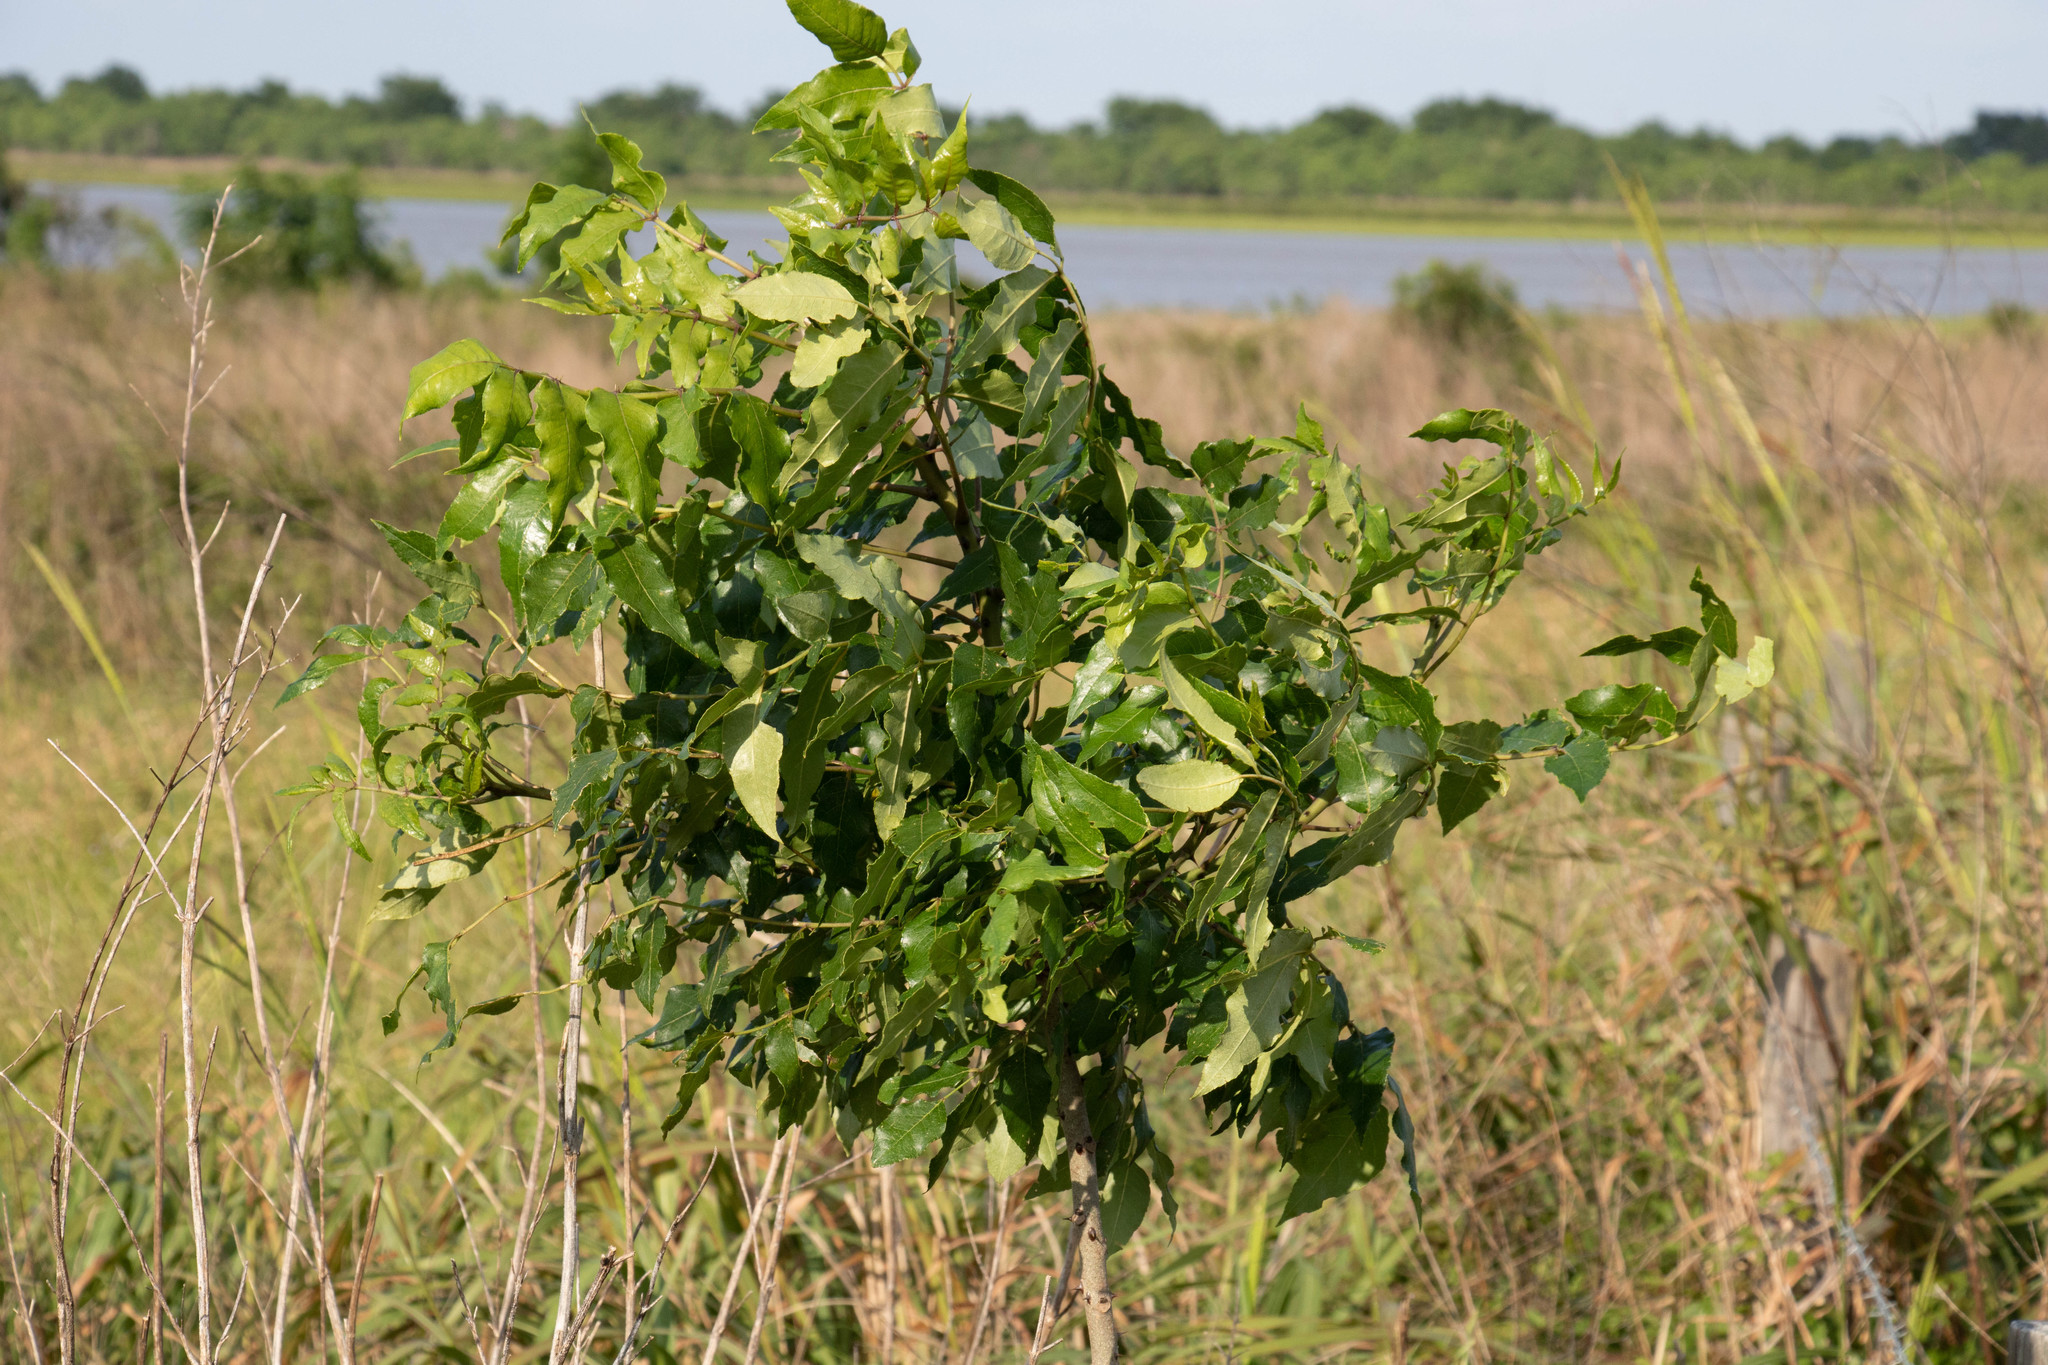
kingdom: Plantae
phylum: Tracheophyta
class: Magnoliopsida
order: Sapindales
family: Rutaceae
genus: Zanthoxylum
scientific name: Zanthoxylum clava-herculis
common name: Hercules'-club
